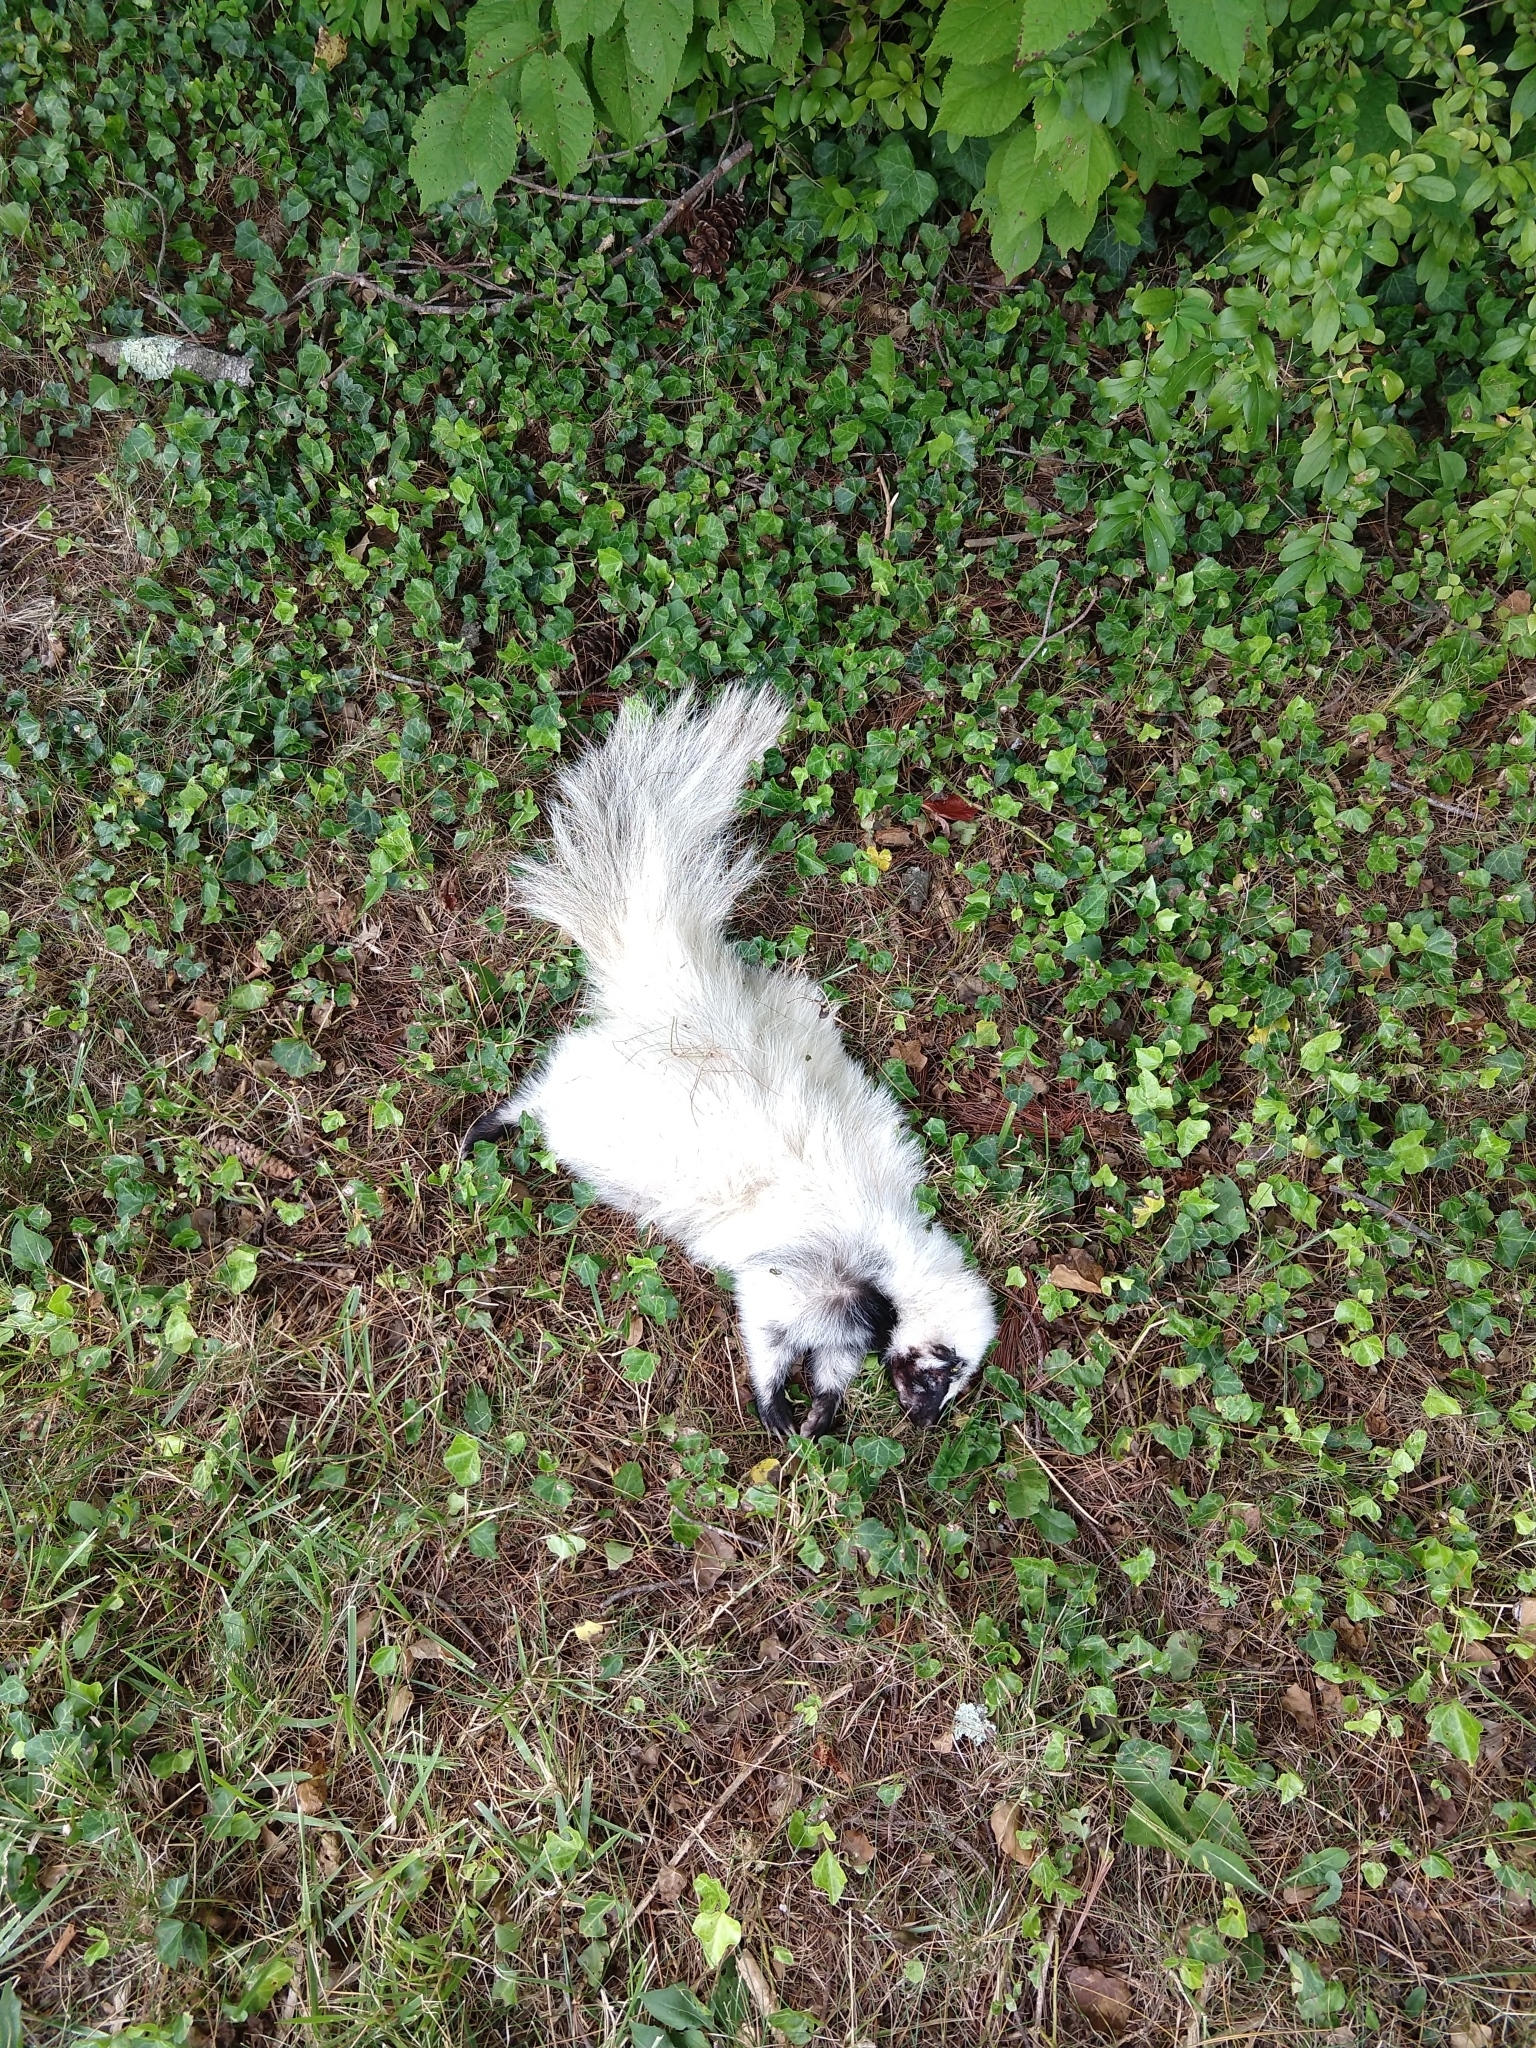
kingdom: Animalia
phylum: Chordata
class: Mammalia
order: Carnivora
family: Mephitidae
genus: Mephitis
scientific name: Mephitis mephitis
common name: Striped skunk
